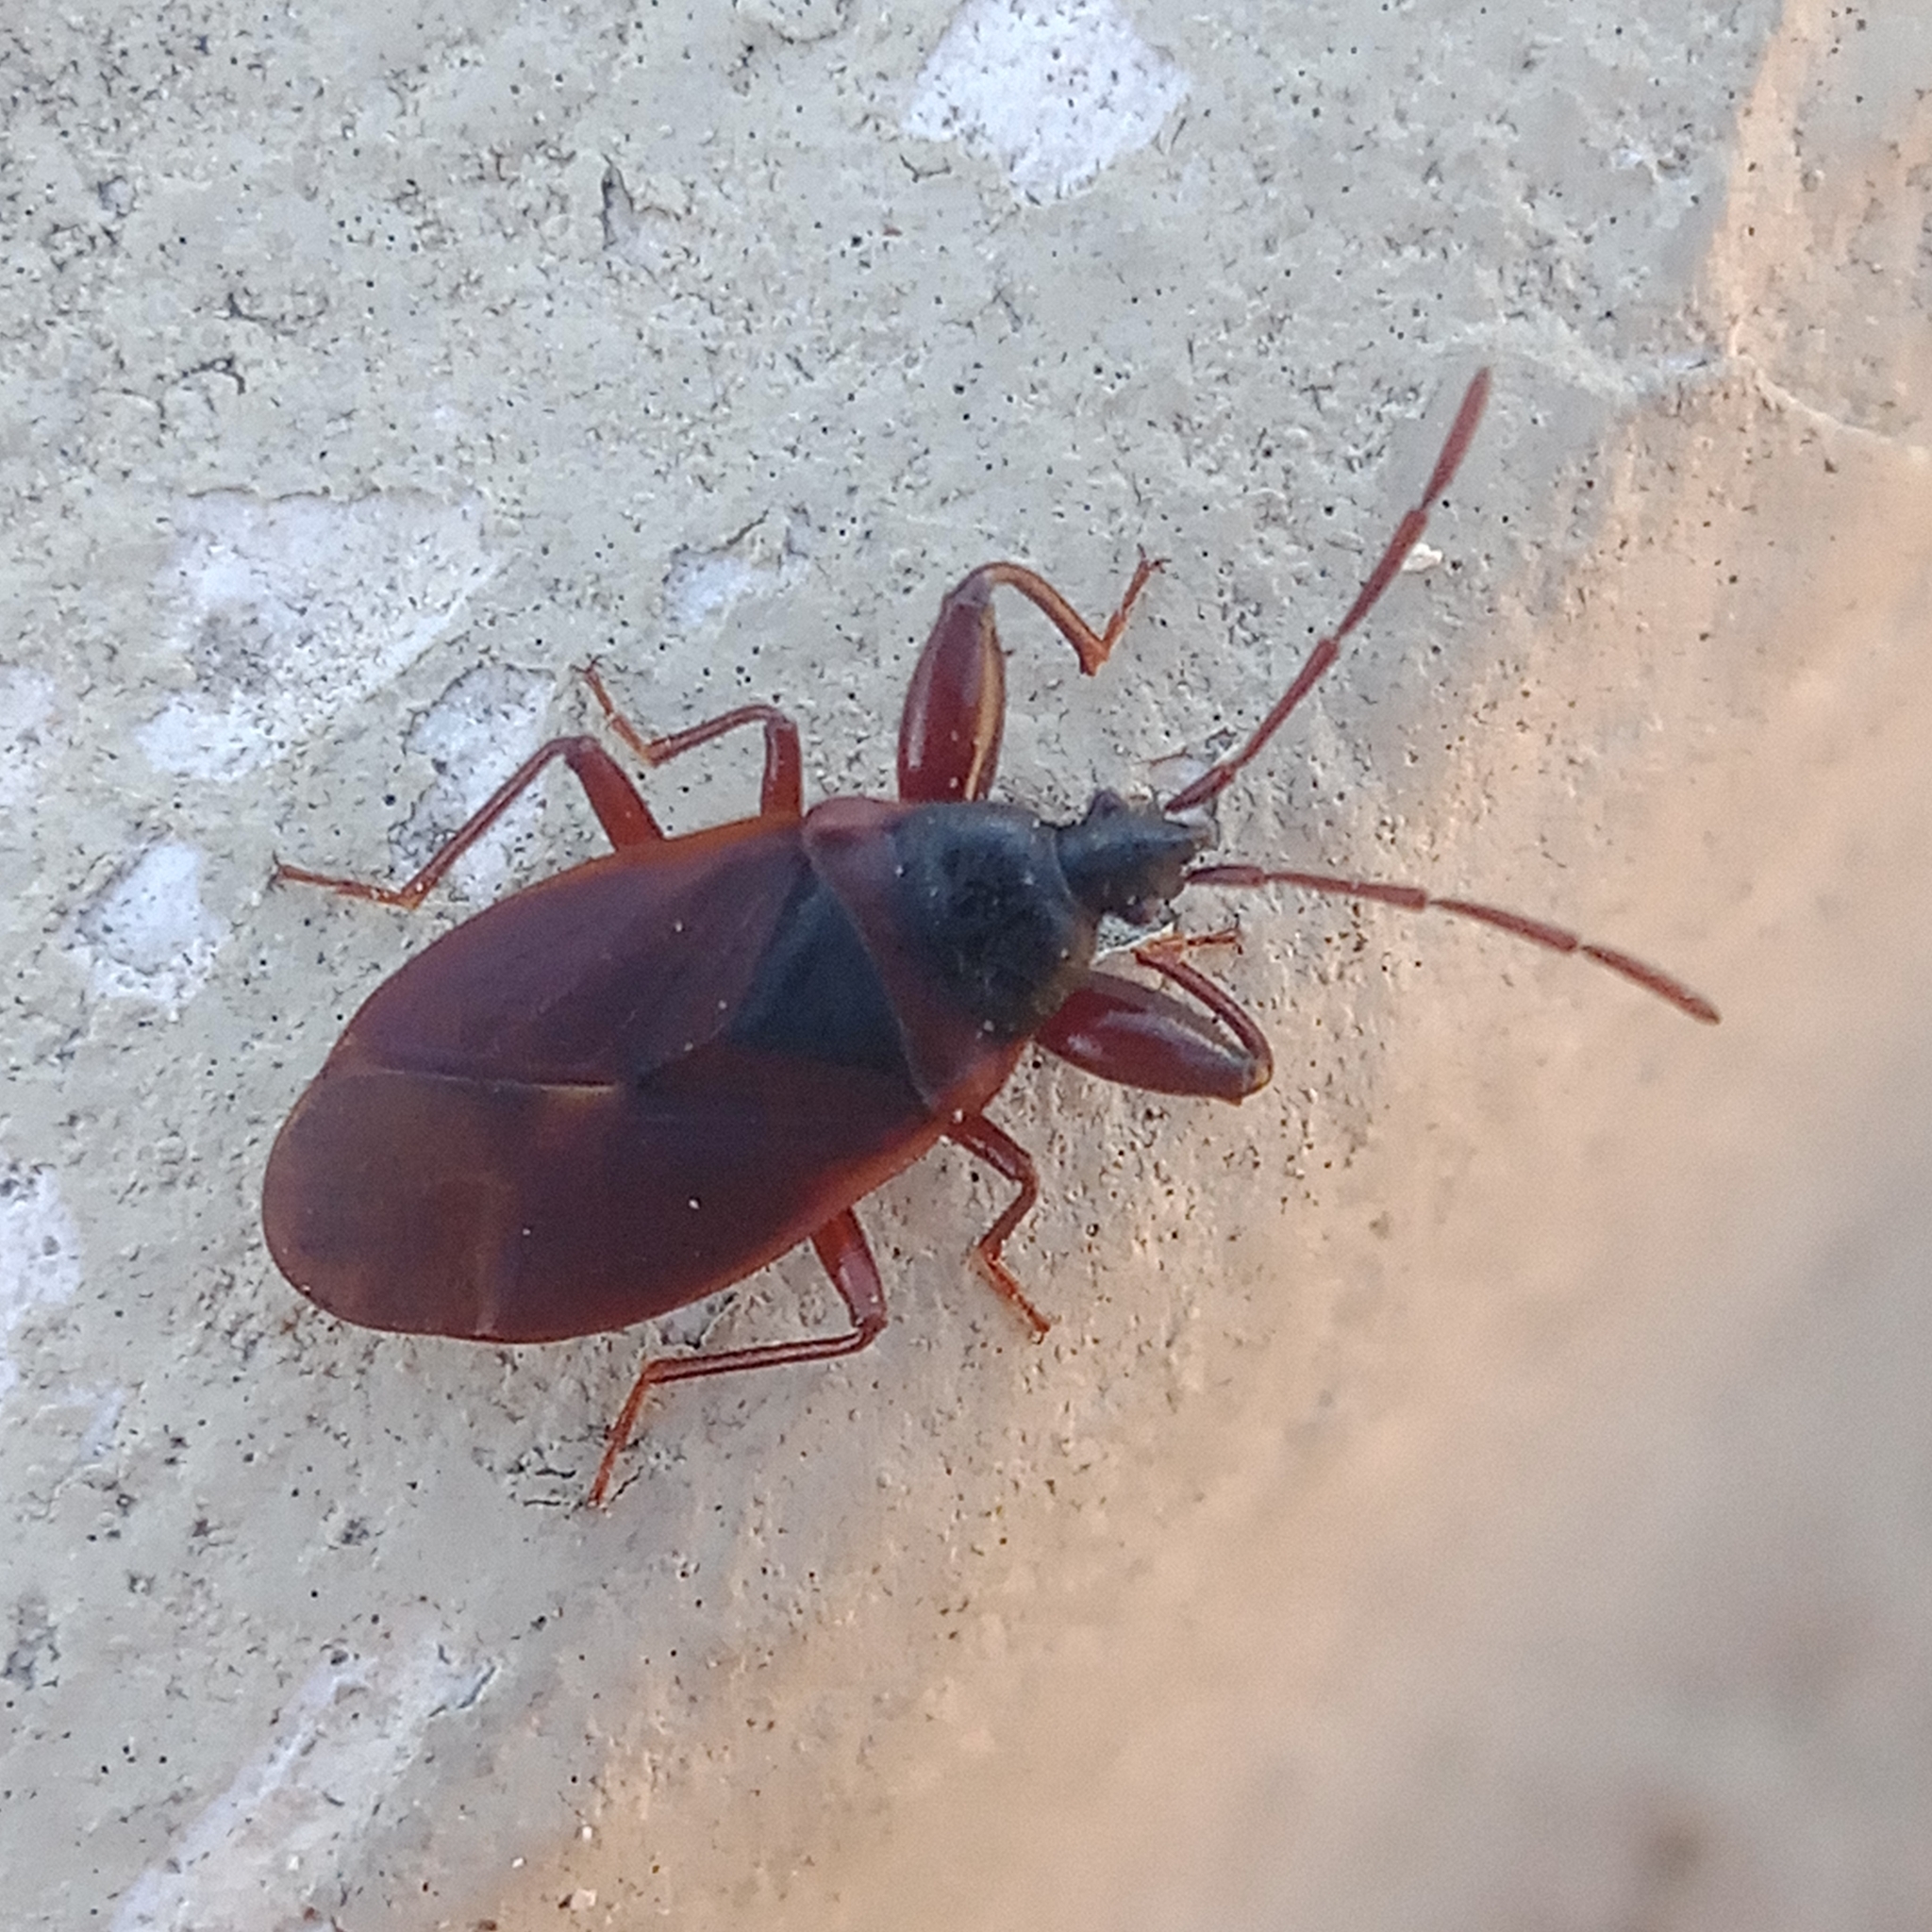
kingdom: Animalia
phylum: Arthropoda
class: Insecta
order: Hemiptera
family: Rhyparochromidae
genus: Gastrodes
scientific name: Gastrodes grossipes
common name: Pine cone bug
